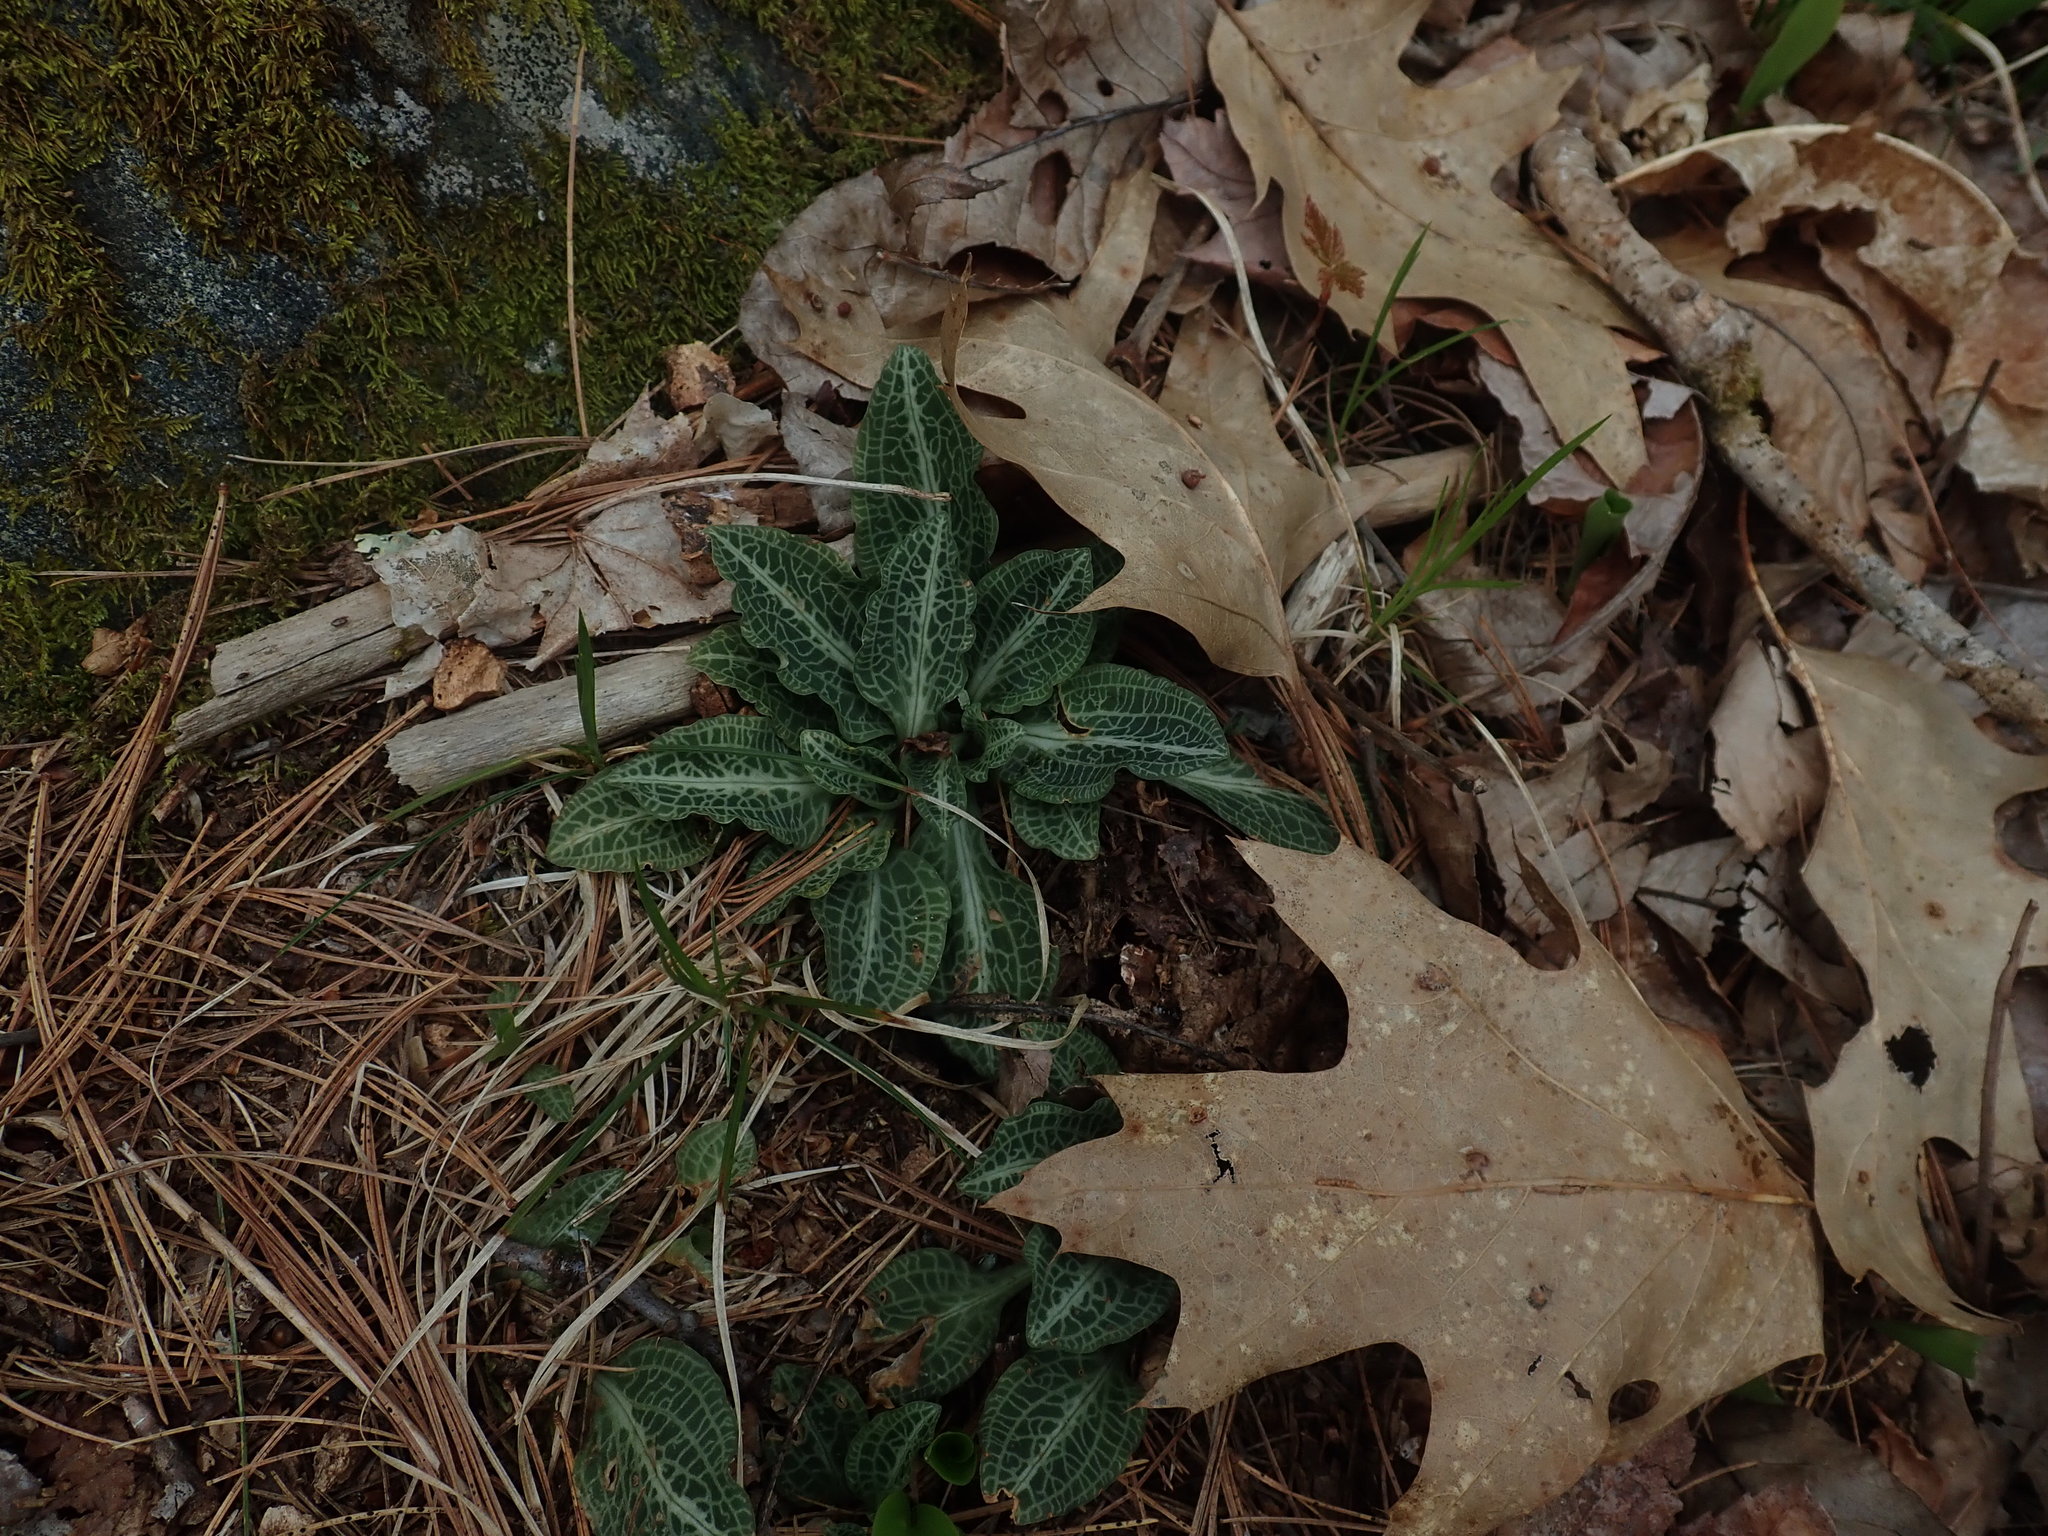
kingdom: Plantae
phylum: Tracheophyta
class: Liliopsida
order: Asparagales
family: Orchidaceae
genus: Goodyera
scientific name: Goodyera pubescens
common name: Downy rattlesnake-plantain
